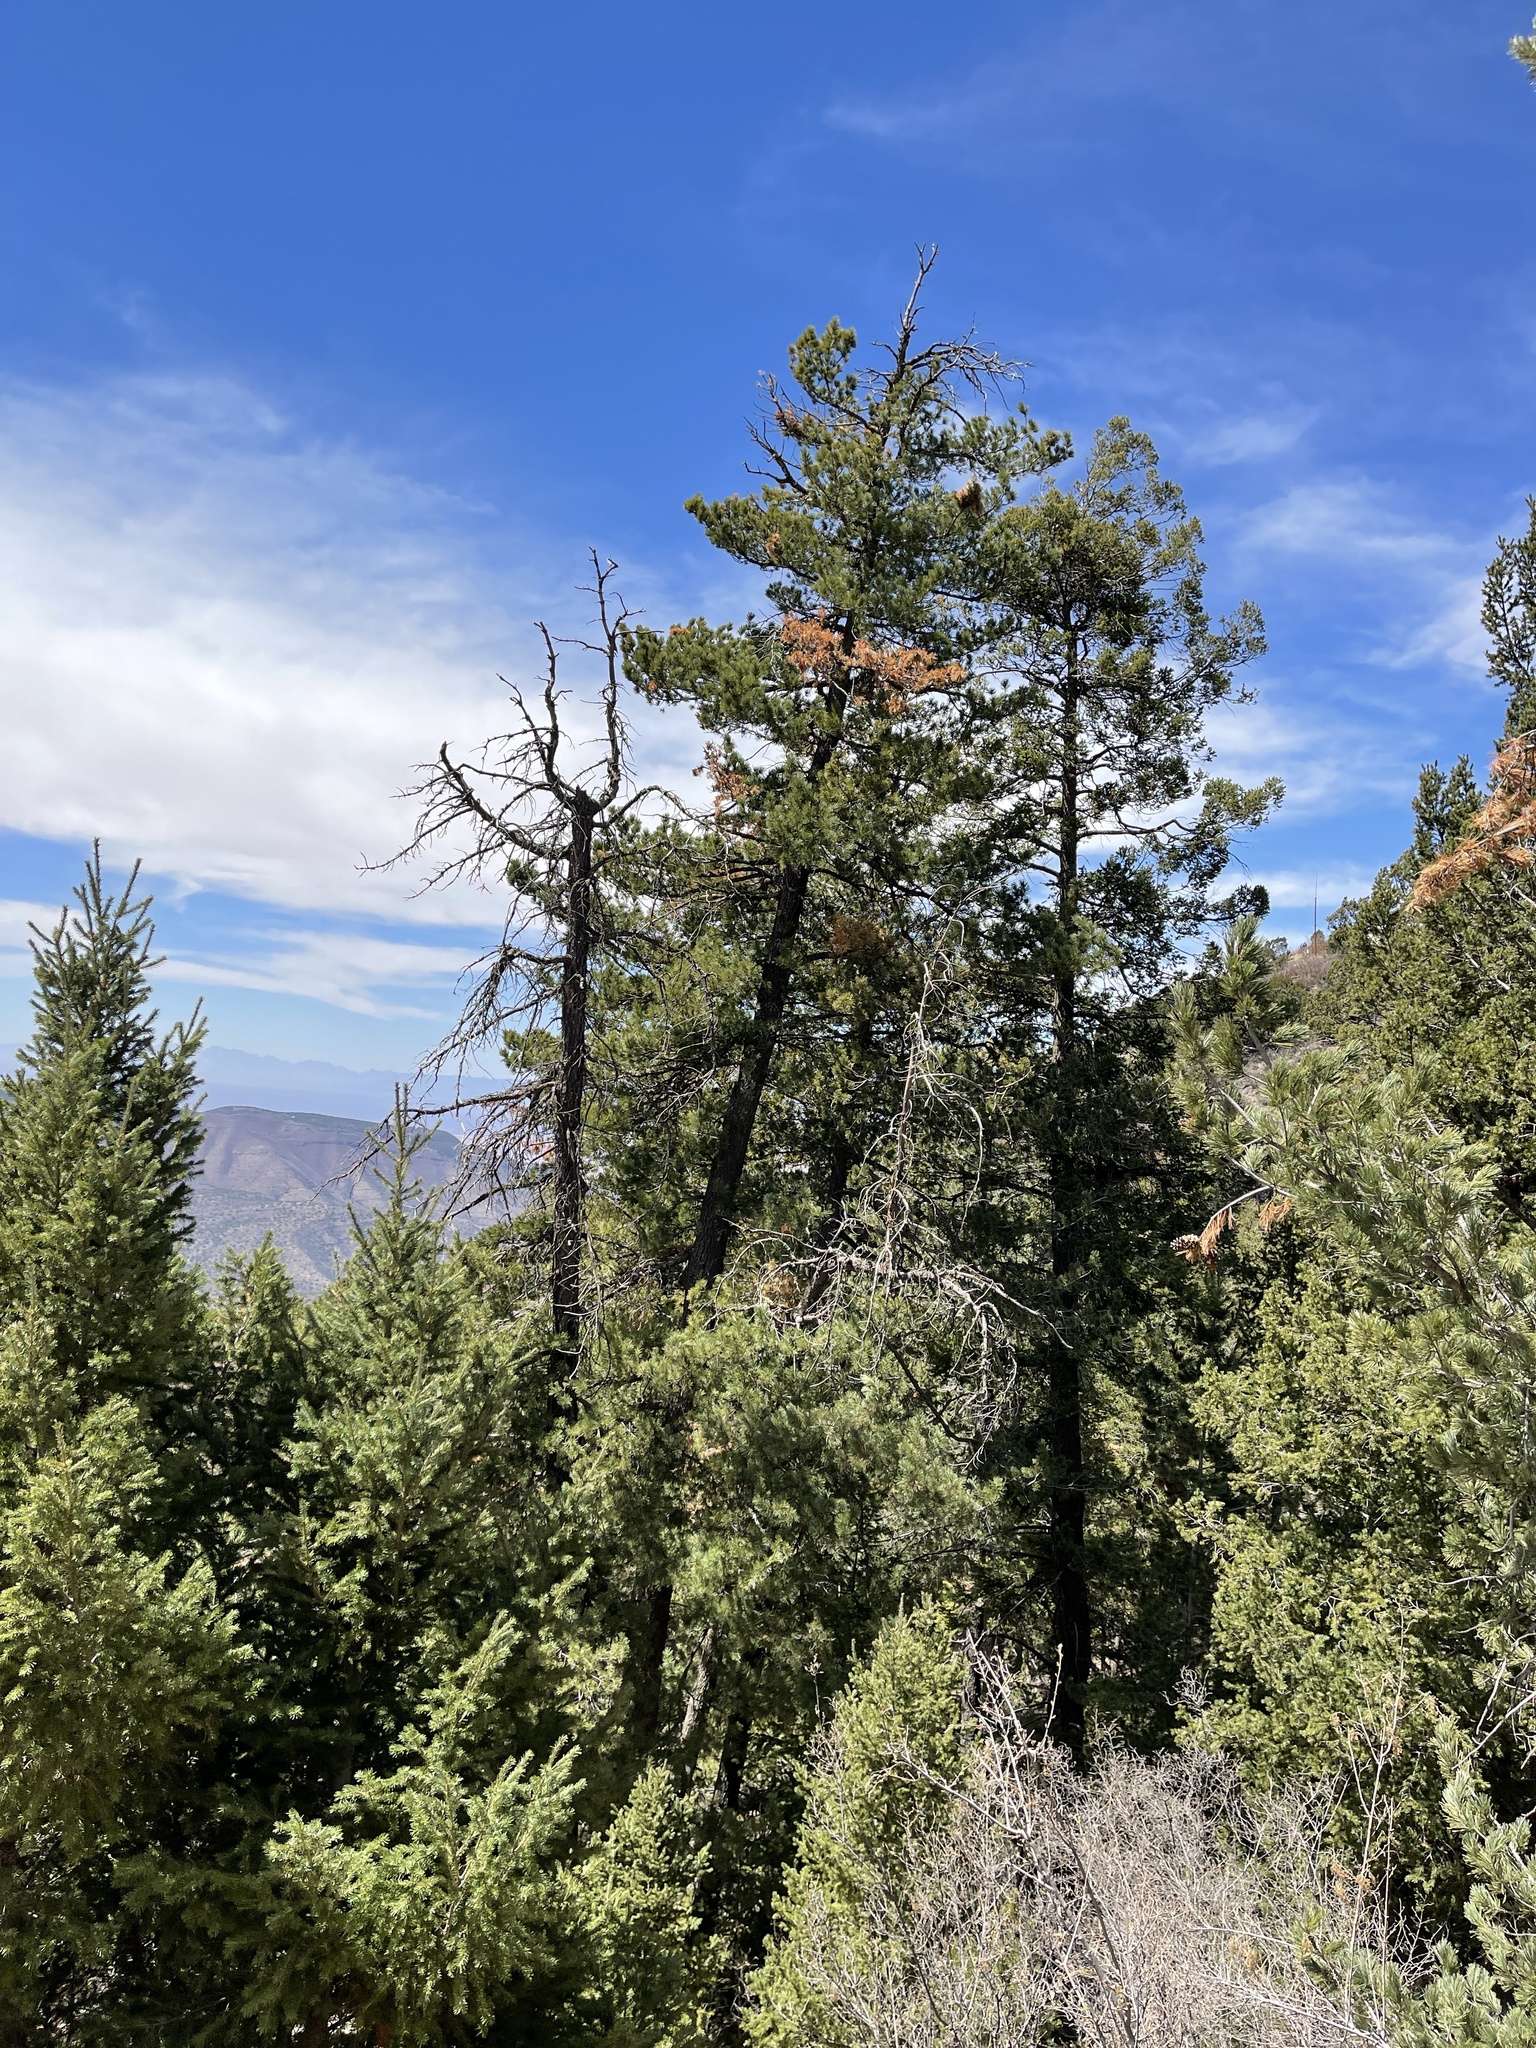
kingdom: Plantae
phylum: Tracheophyta
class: Pinopsida
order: Pinales
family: Pinaceae
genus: Pinus
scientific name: Pinus strobiformis
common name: Southwestern white pine
